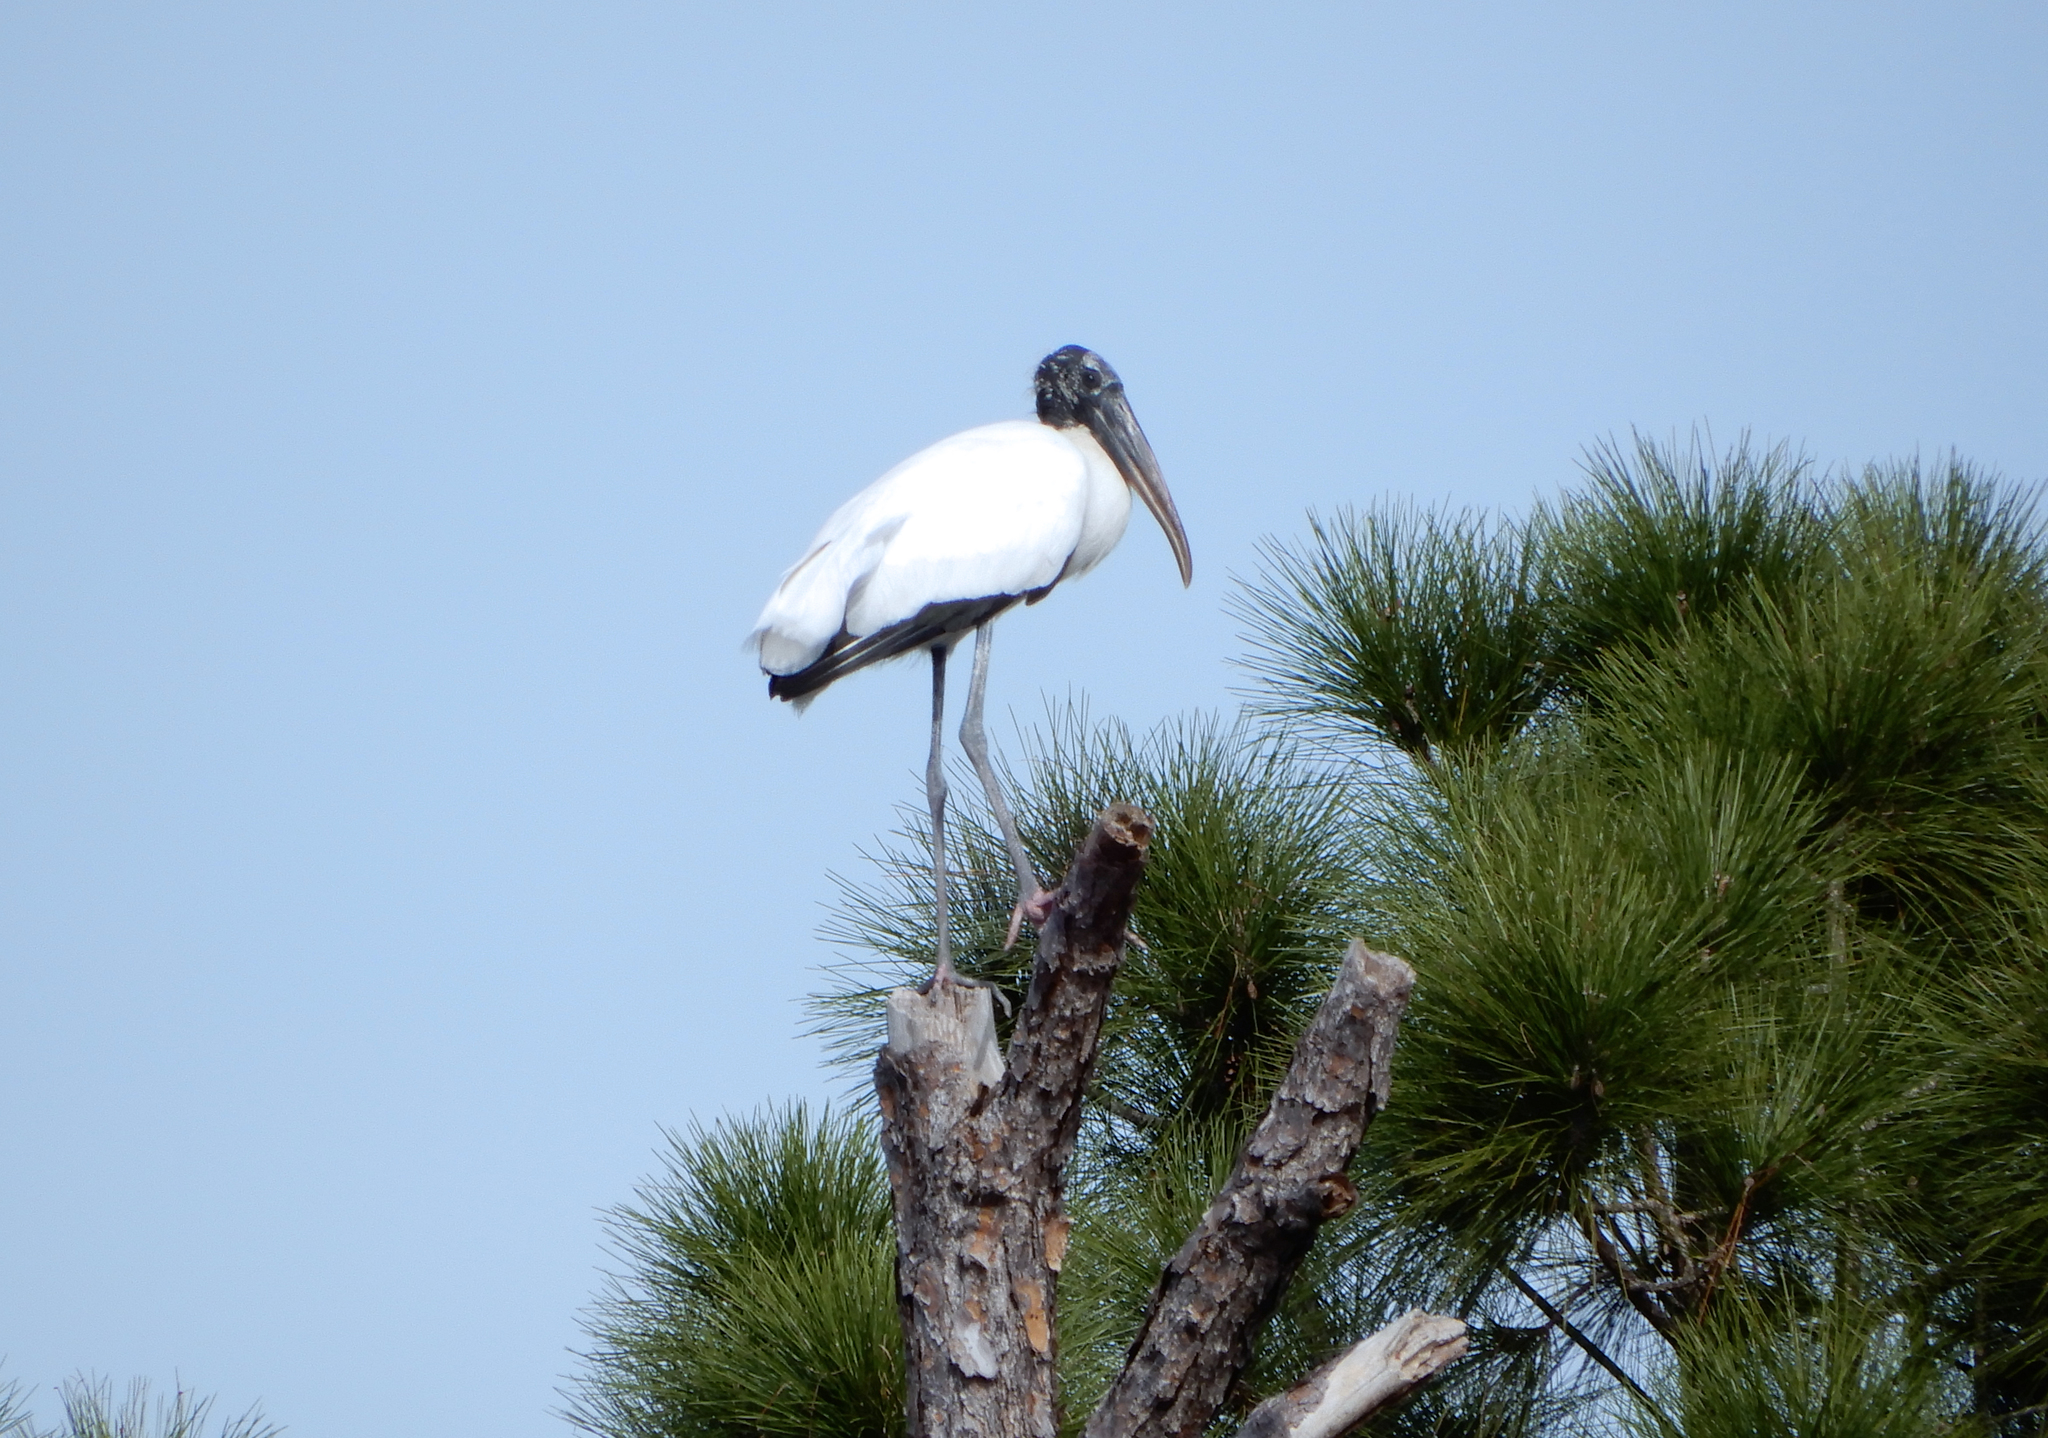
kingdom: Animalia
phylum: Chordata
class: Aves
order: Ciconiiformes
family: Ciconiidae
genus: Mycteria
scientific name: Mycteria americana
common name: Wood stork
